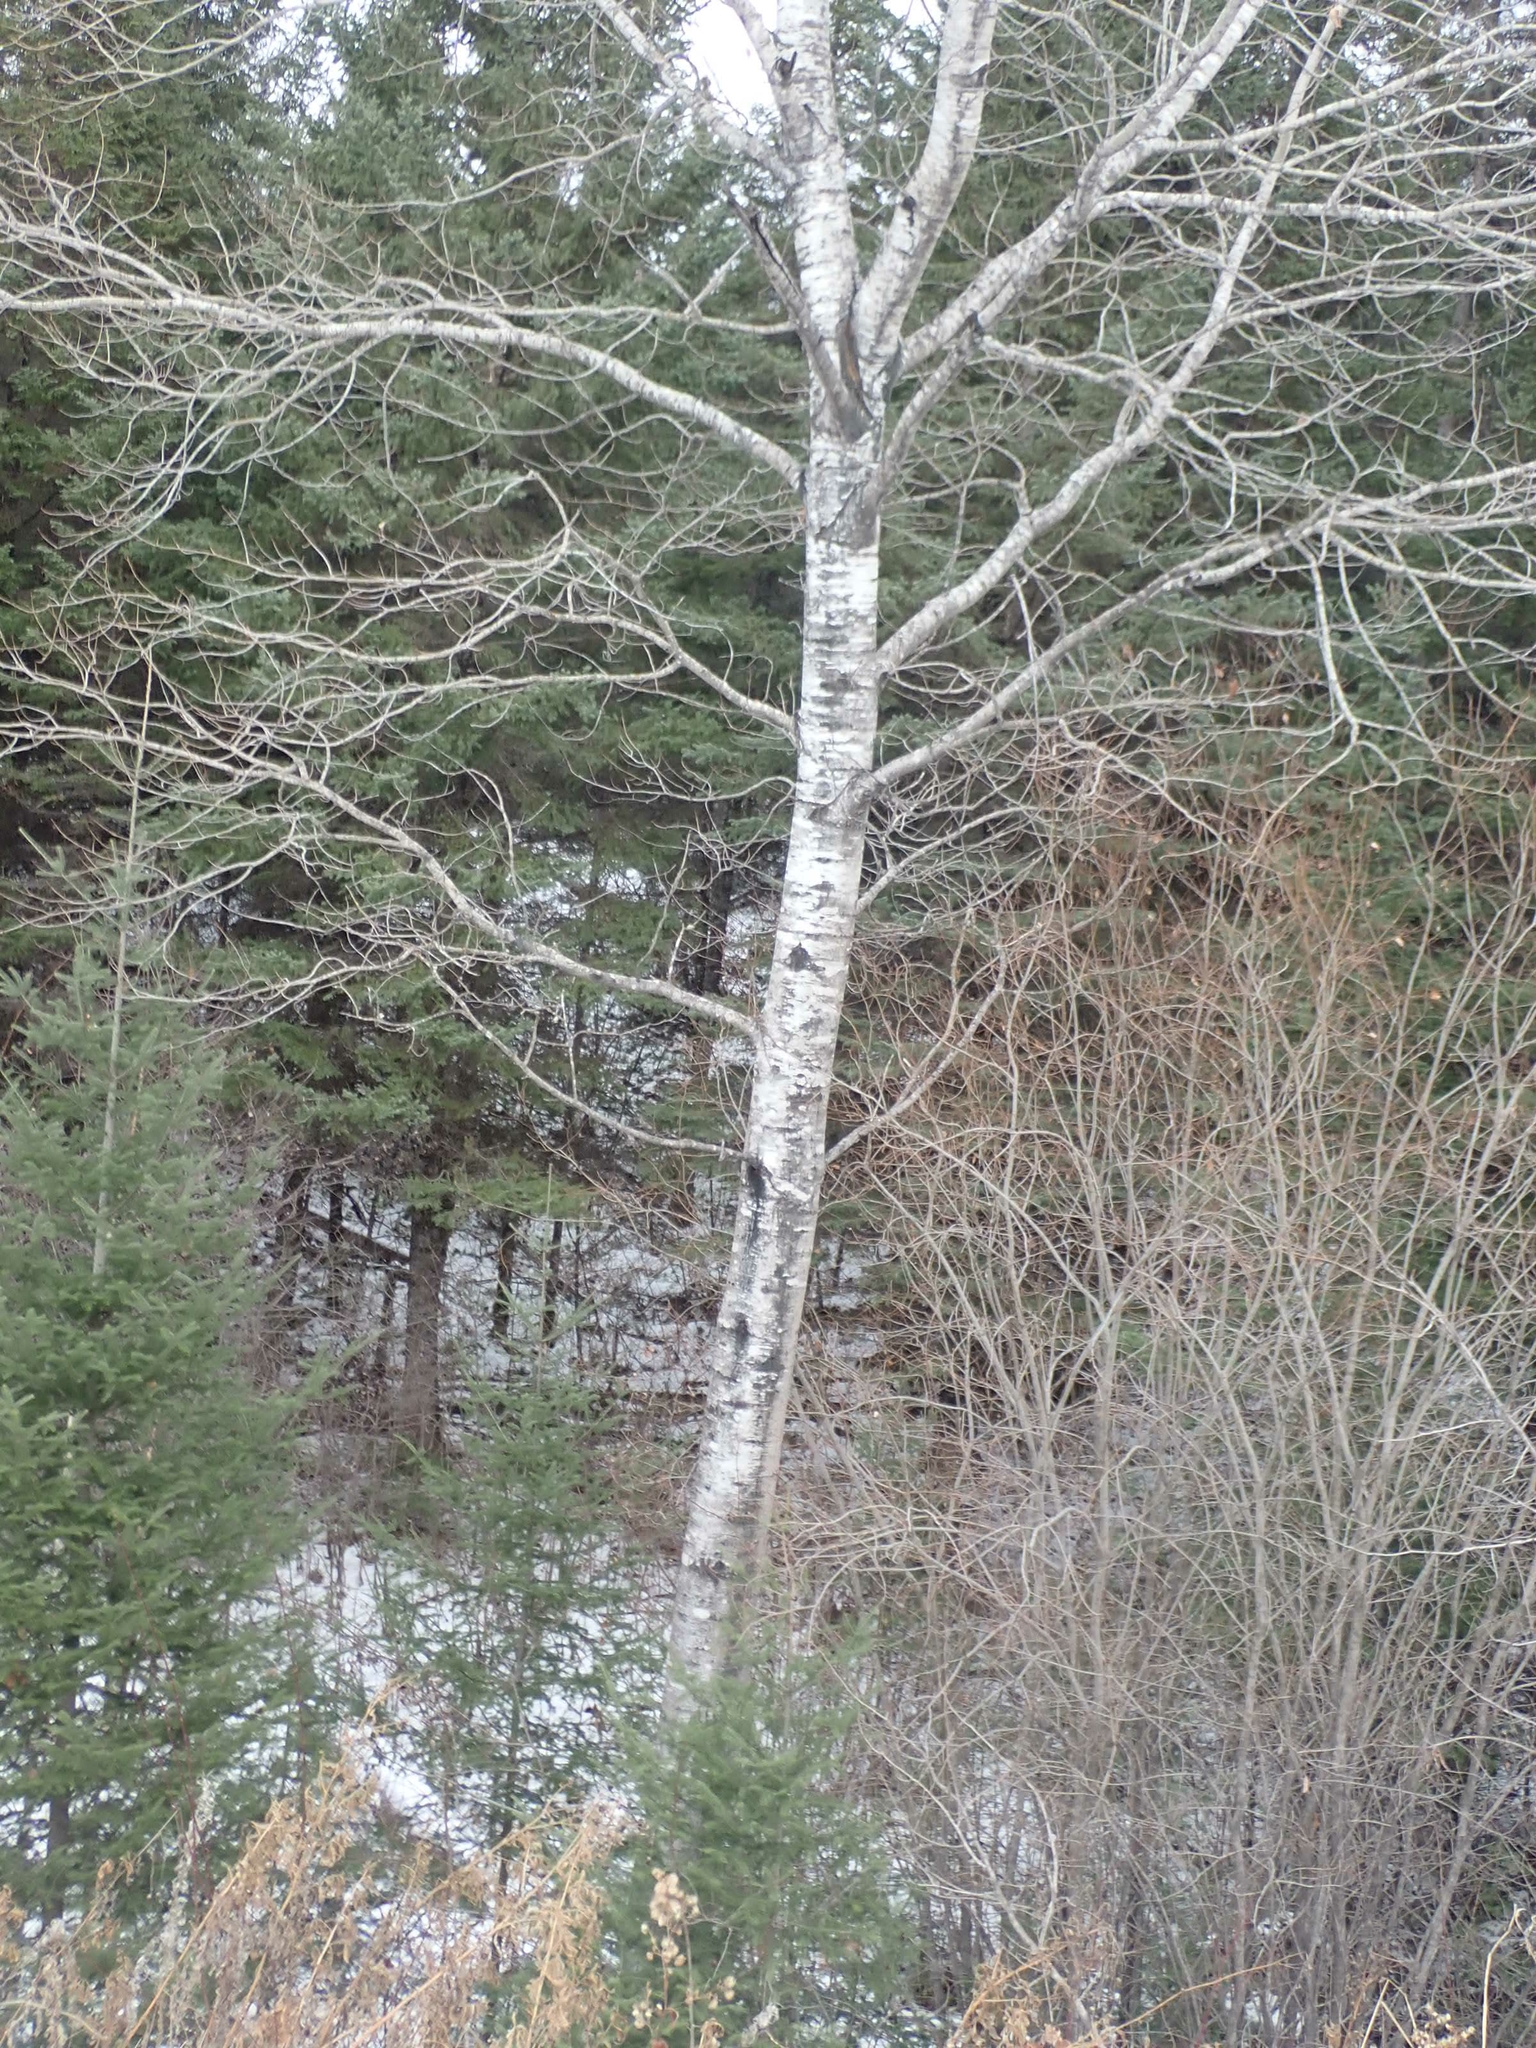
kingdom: Plantae
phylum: Tracheophyta
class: Magnoliopsida
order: Malpighiales
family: Salicaceae
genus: Populus
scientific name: Populus tremuloides
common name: Quaking aspen
